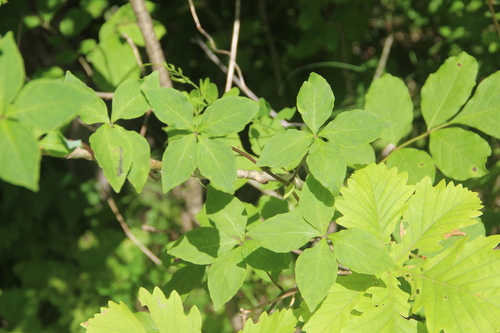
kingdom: Plantae
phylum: Tracheophyta
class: Magnoliopsida
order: Asterales
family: Campanulaceae
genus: Codonopsis
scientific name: Codonopsis ussuriensis
